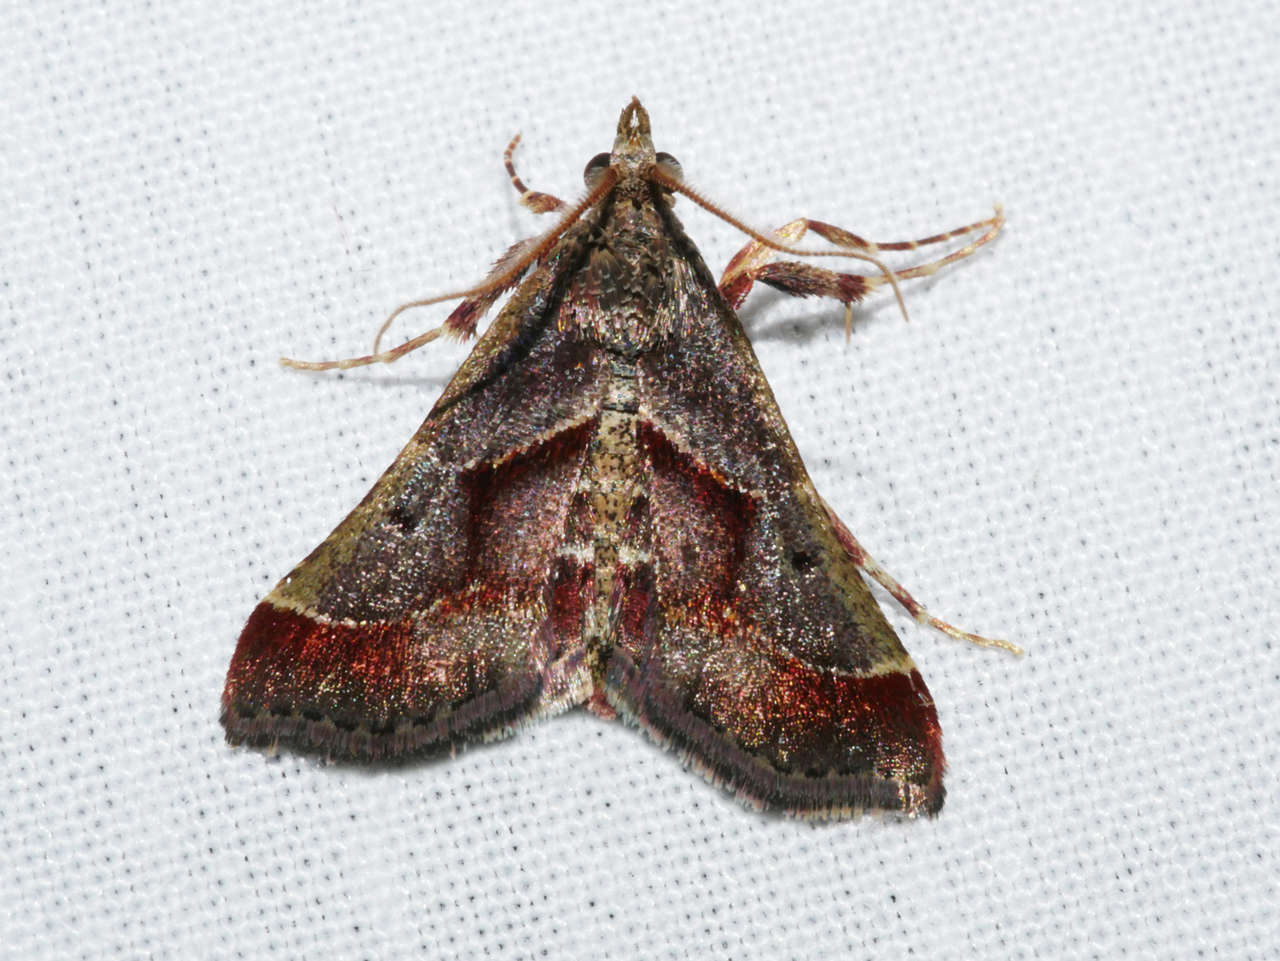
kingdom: Animalia
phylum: Arthropoda
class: Insecta
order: Lepidoptera
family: Pyralidae
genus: Gauna
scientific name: Gauna aegusalis
